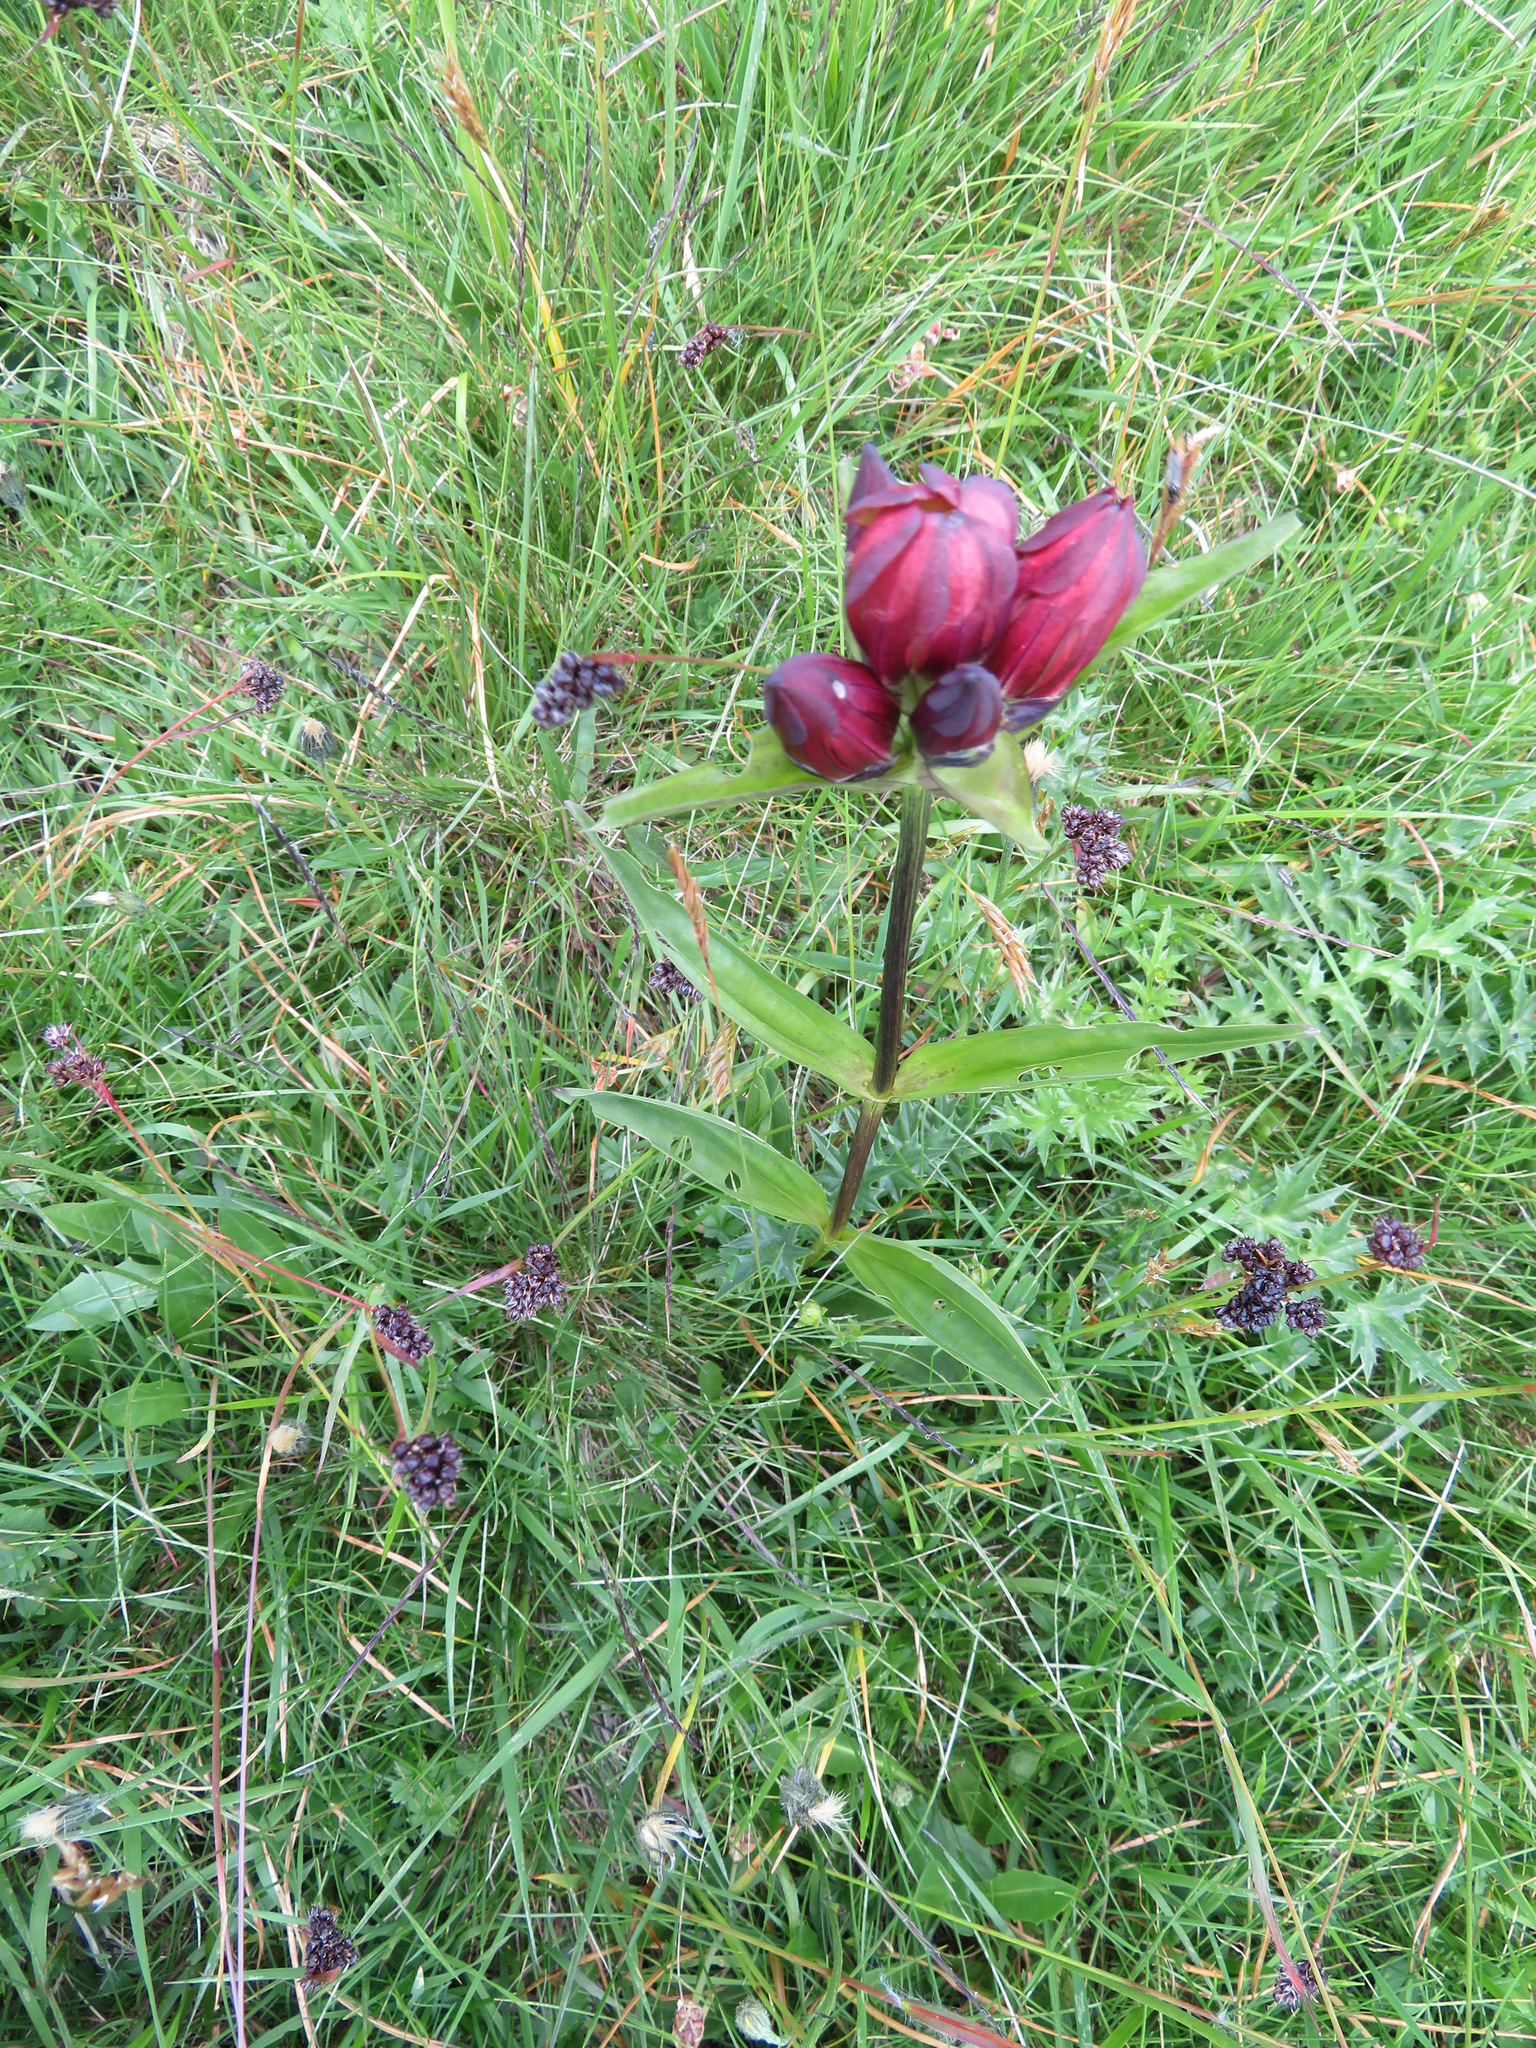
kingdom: Plantae
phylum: Tracheophyta
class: Magnoliopsida
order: Gentianales
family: Gentianaceae
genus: Gentiana
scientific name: Gentiana purpurea
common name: Purple gentian
